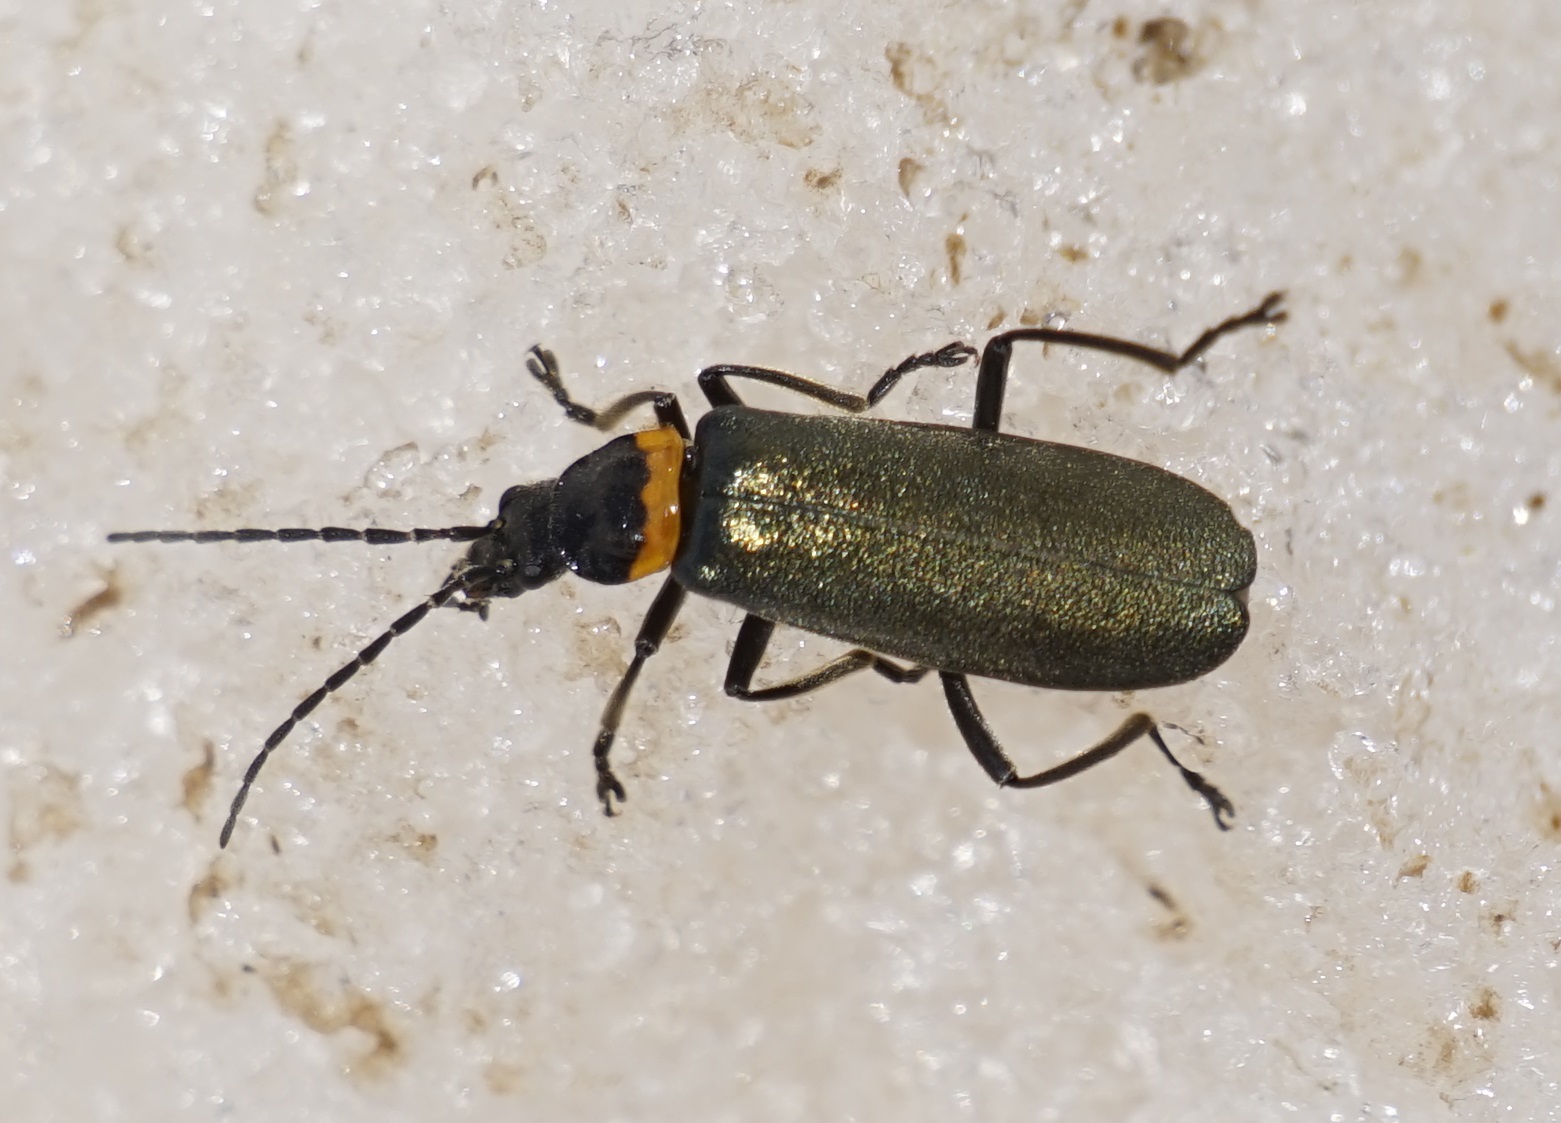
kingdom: Animalia
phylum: Arthropoda
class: Insecta
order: Coleoptera
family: Cantharidae
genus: Chauliognathus
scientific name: Chauliognathus
